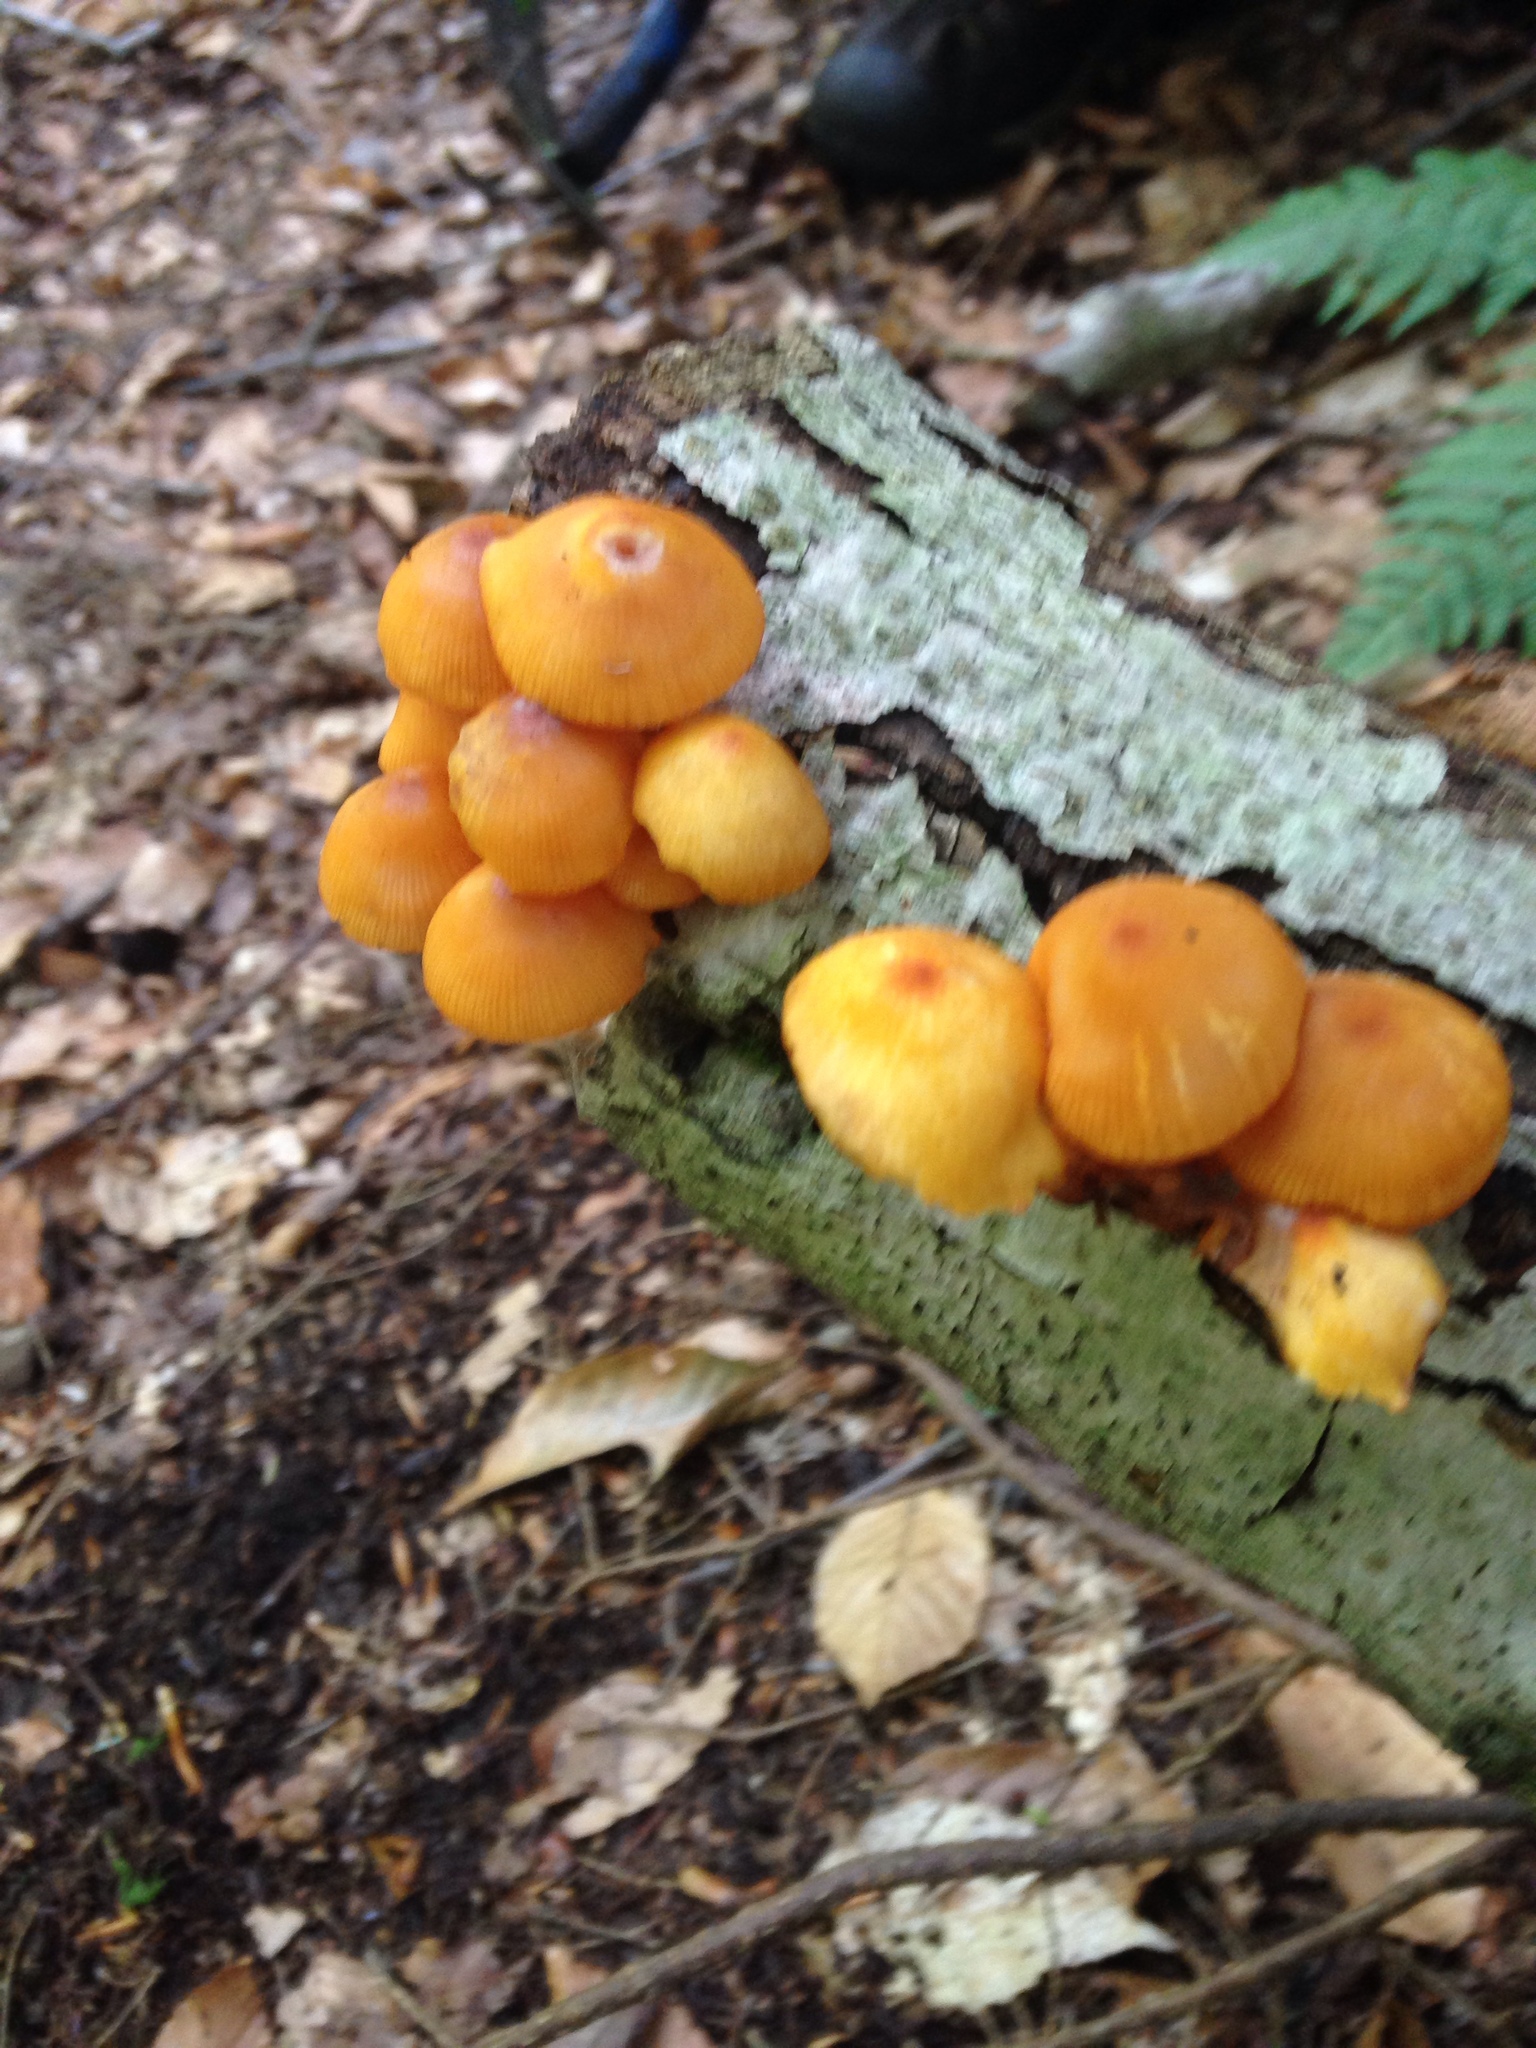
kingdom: Fungi
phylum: Basidiomycota
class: Agaricomycetes
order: Agaricales
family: Mycenaceae
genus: Mycena
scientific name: Mycena leaiana
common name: Orange mycena
